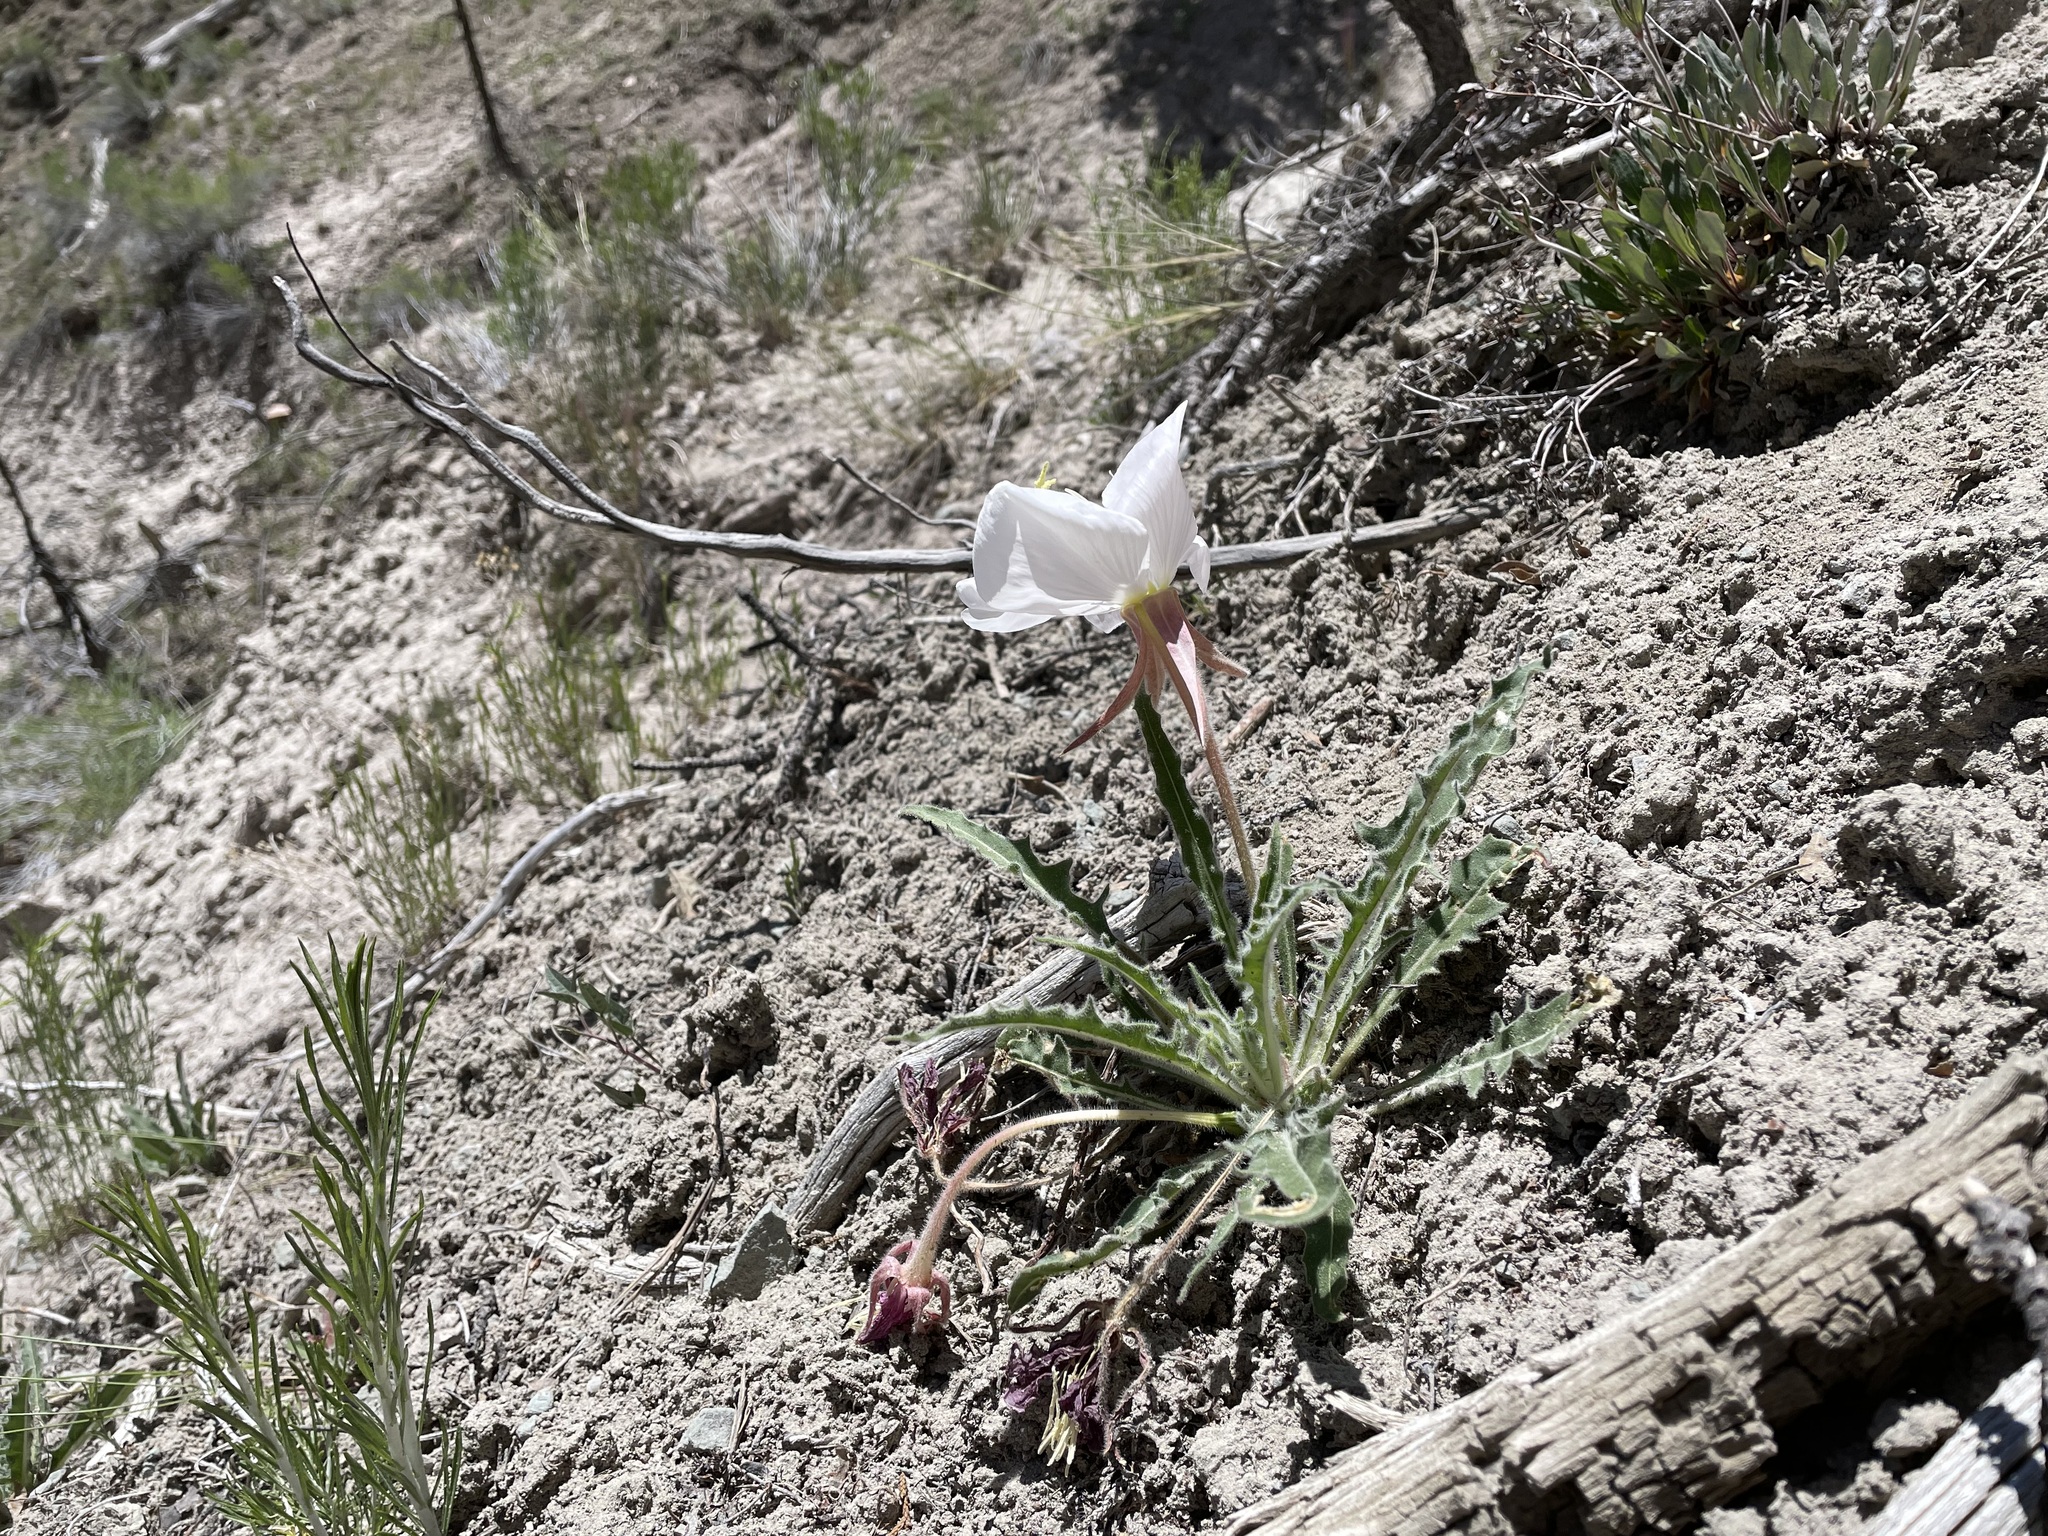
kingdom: Plantae
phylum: Tracheophyta
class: Magnoliopsida
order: Myrtales
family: Onagraceae
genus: Oenothera
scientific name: Oenothera cespitosa
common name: Tufted evening-primrose
